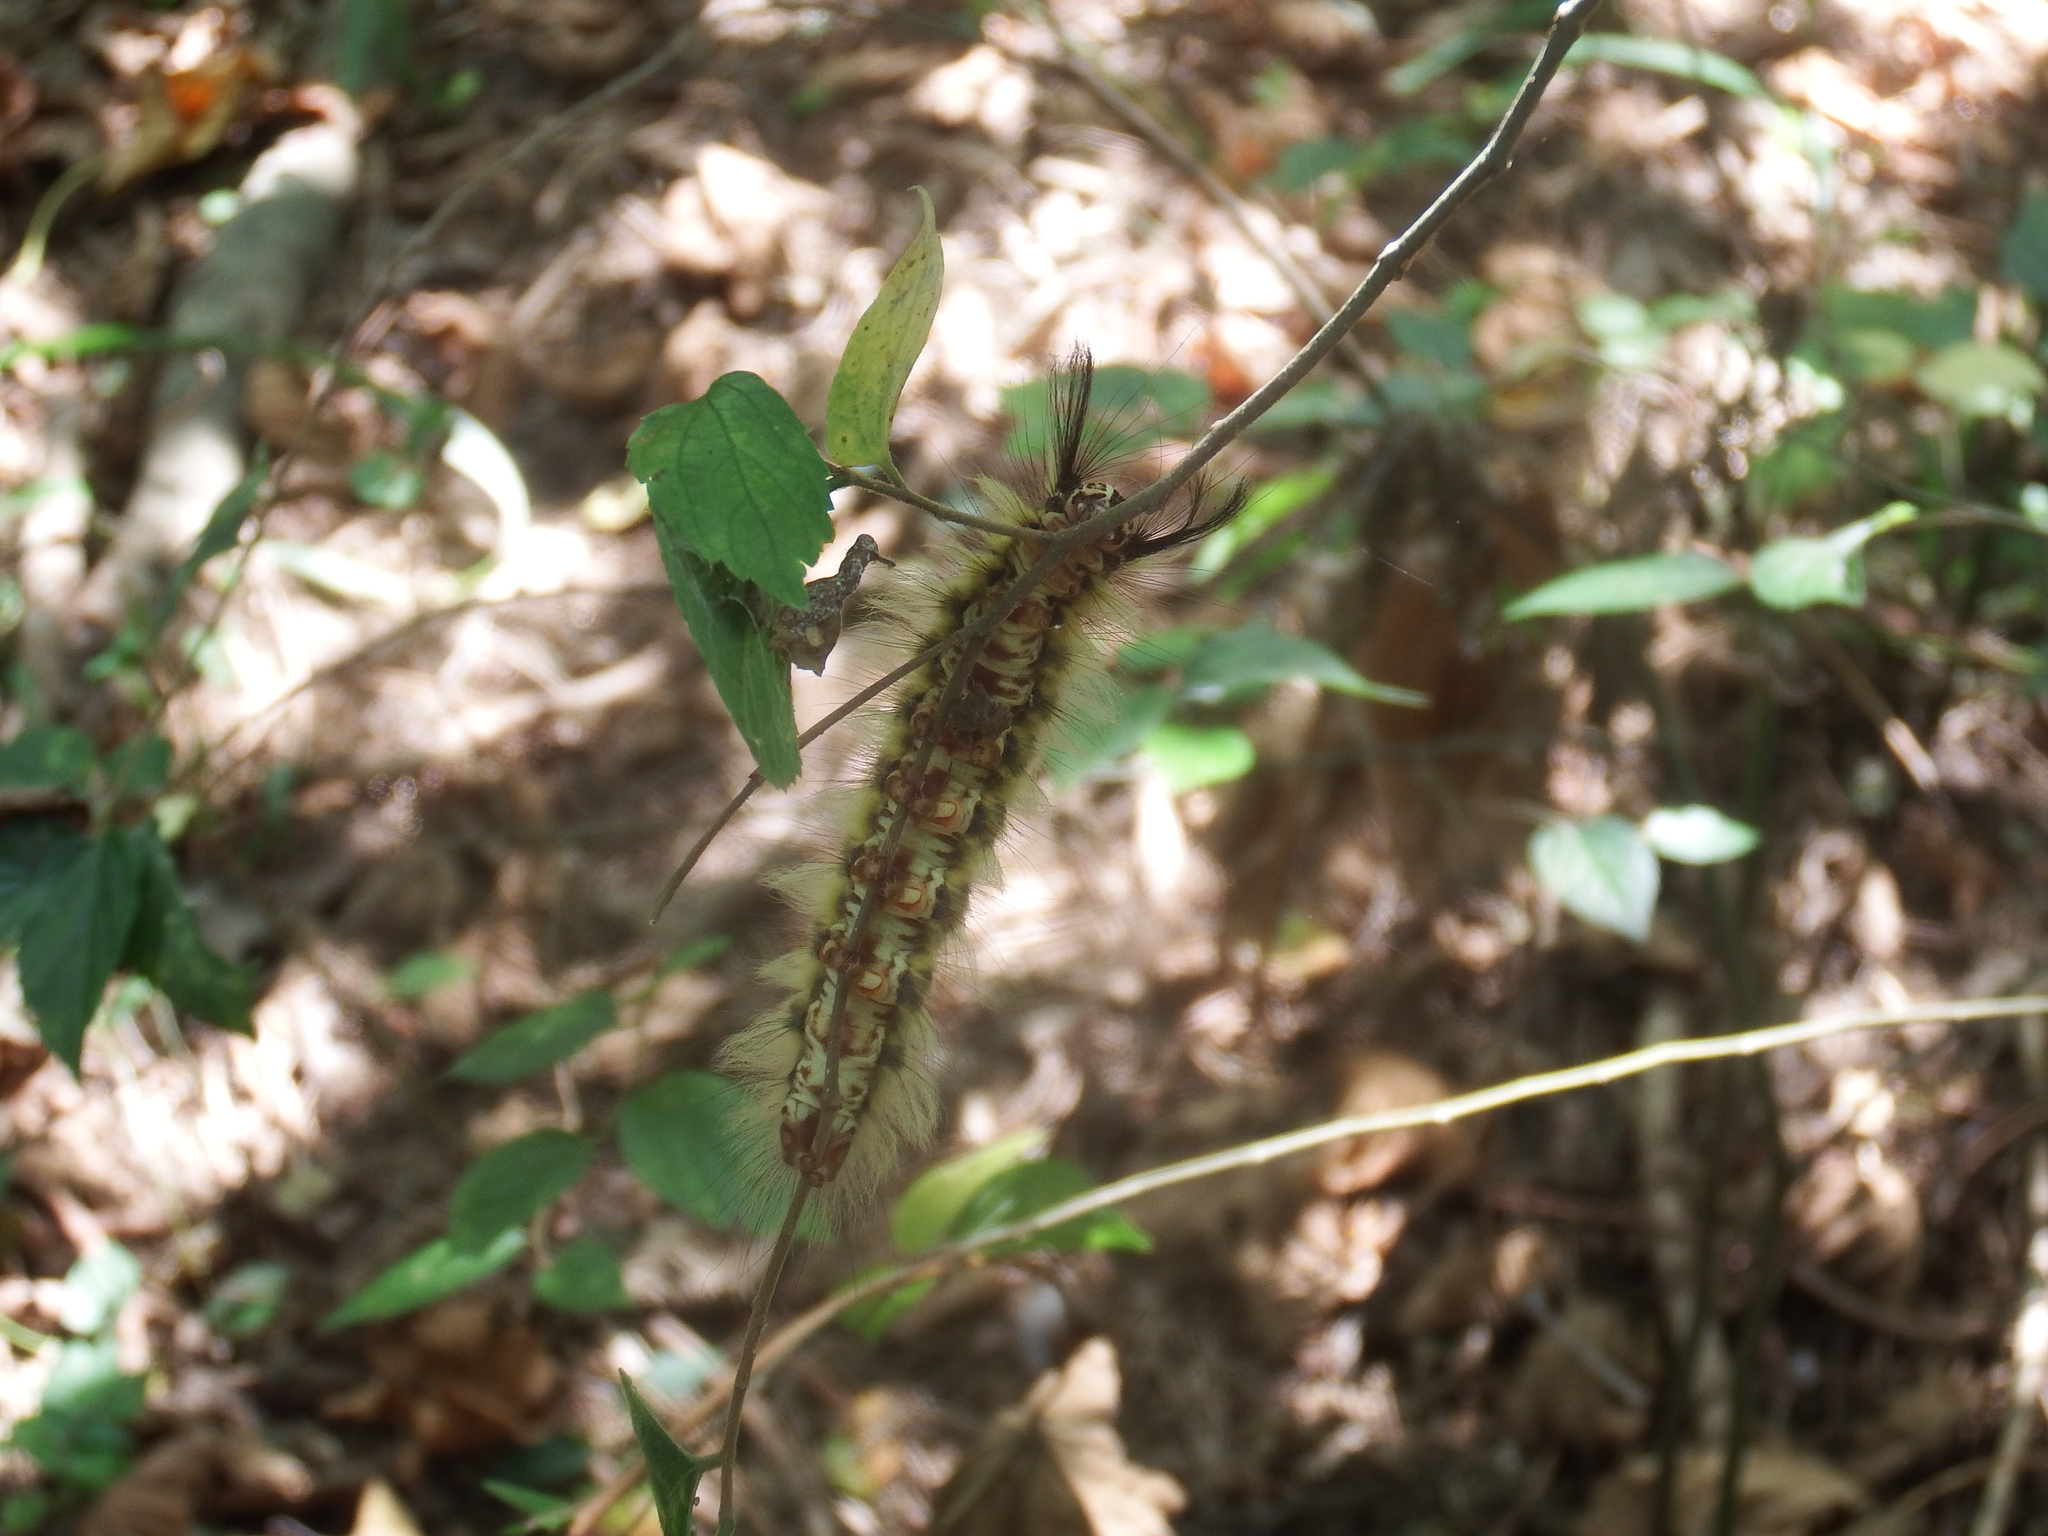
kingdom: Animalia
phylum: Arthropoda
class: Insecta
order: Lepidoptera
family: Lasiocampidae
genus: Trabala
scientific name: Trabala vishnou
